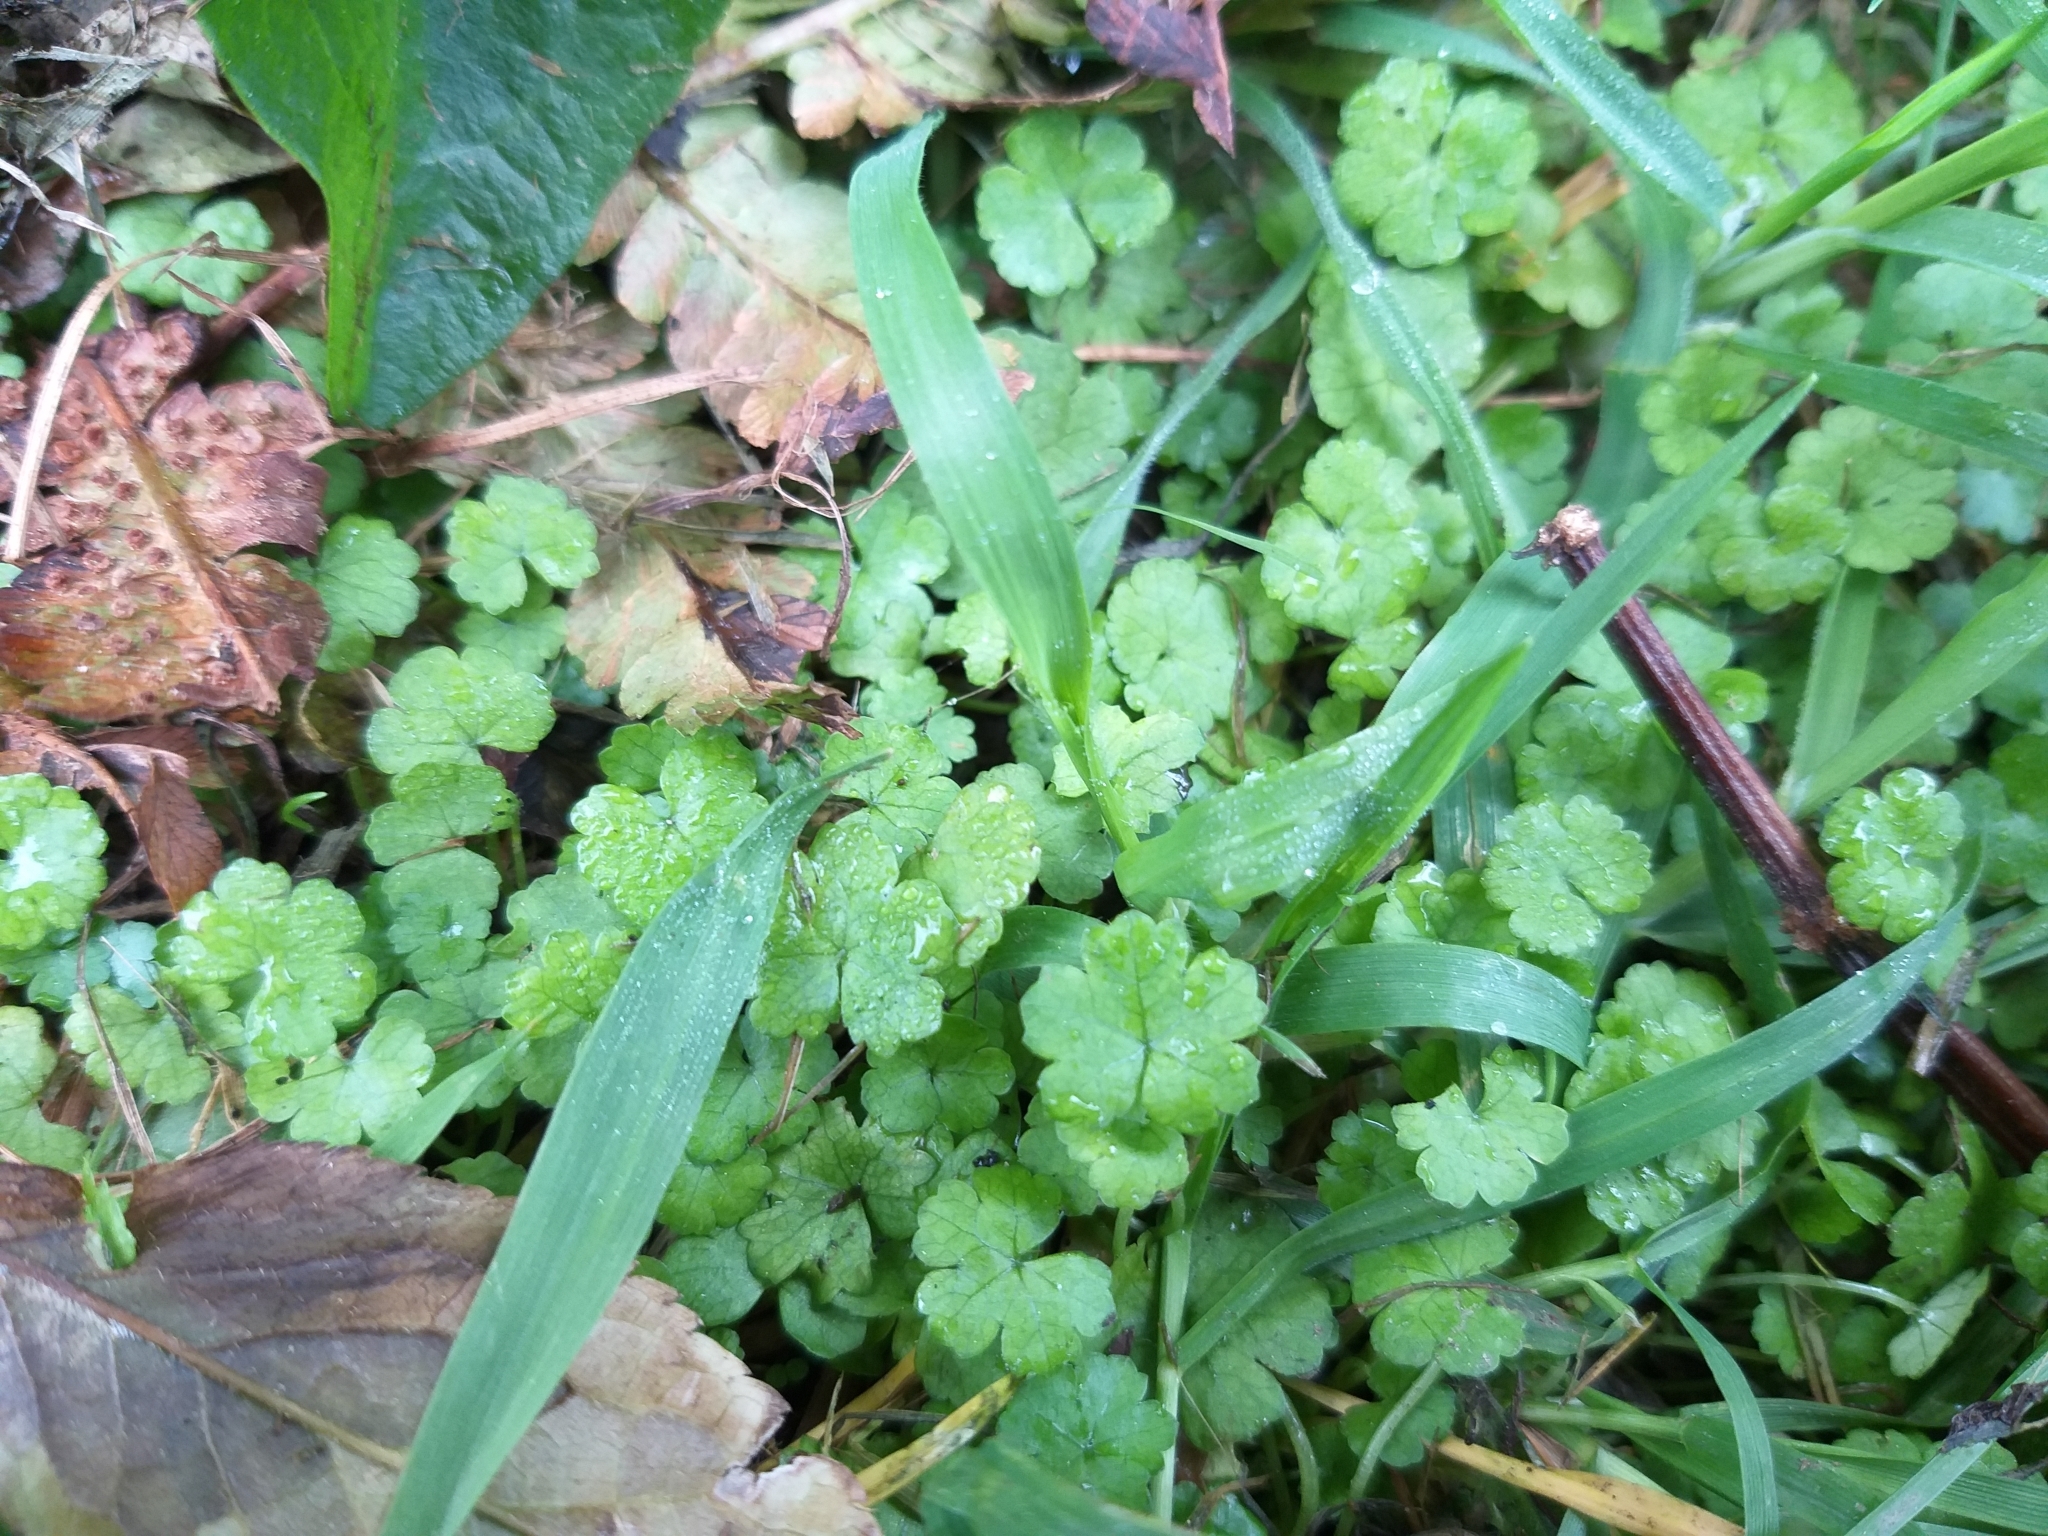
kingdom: Plantae
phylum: Tracheophyta
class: Magnoliopsida
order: Apiales
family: Araliaceae
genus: Hydrocotyle
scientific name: Hydrocotyle heteromeria
